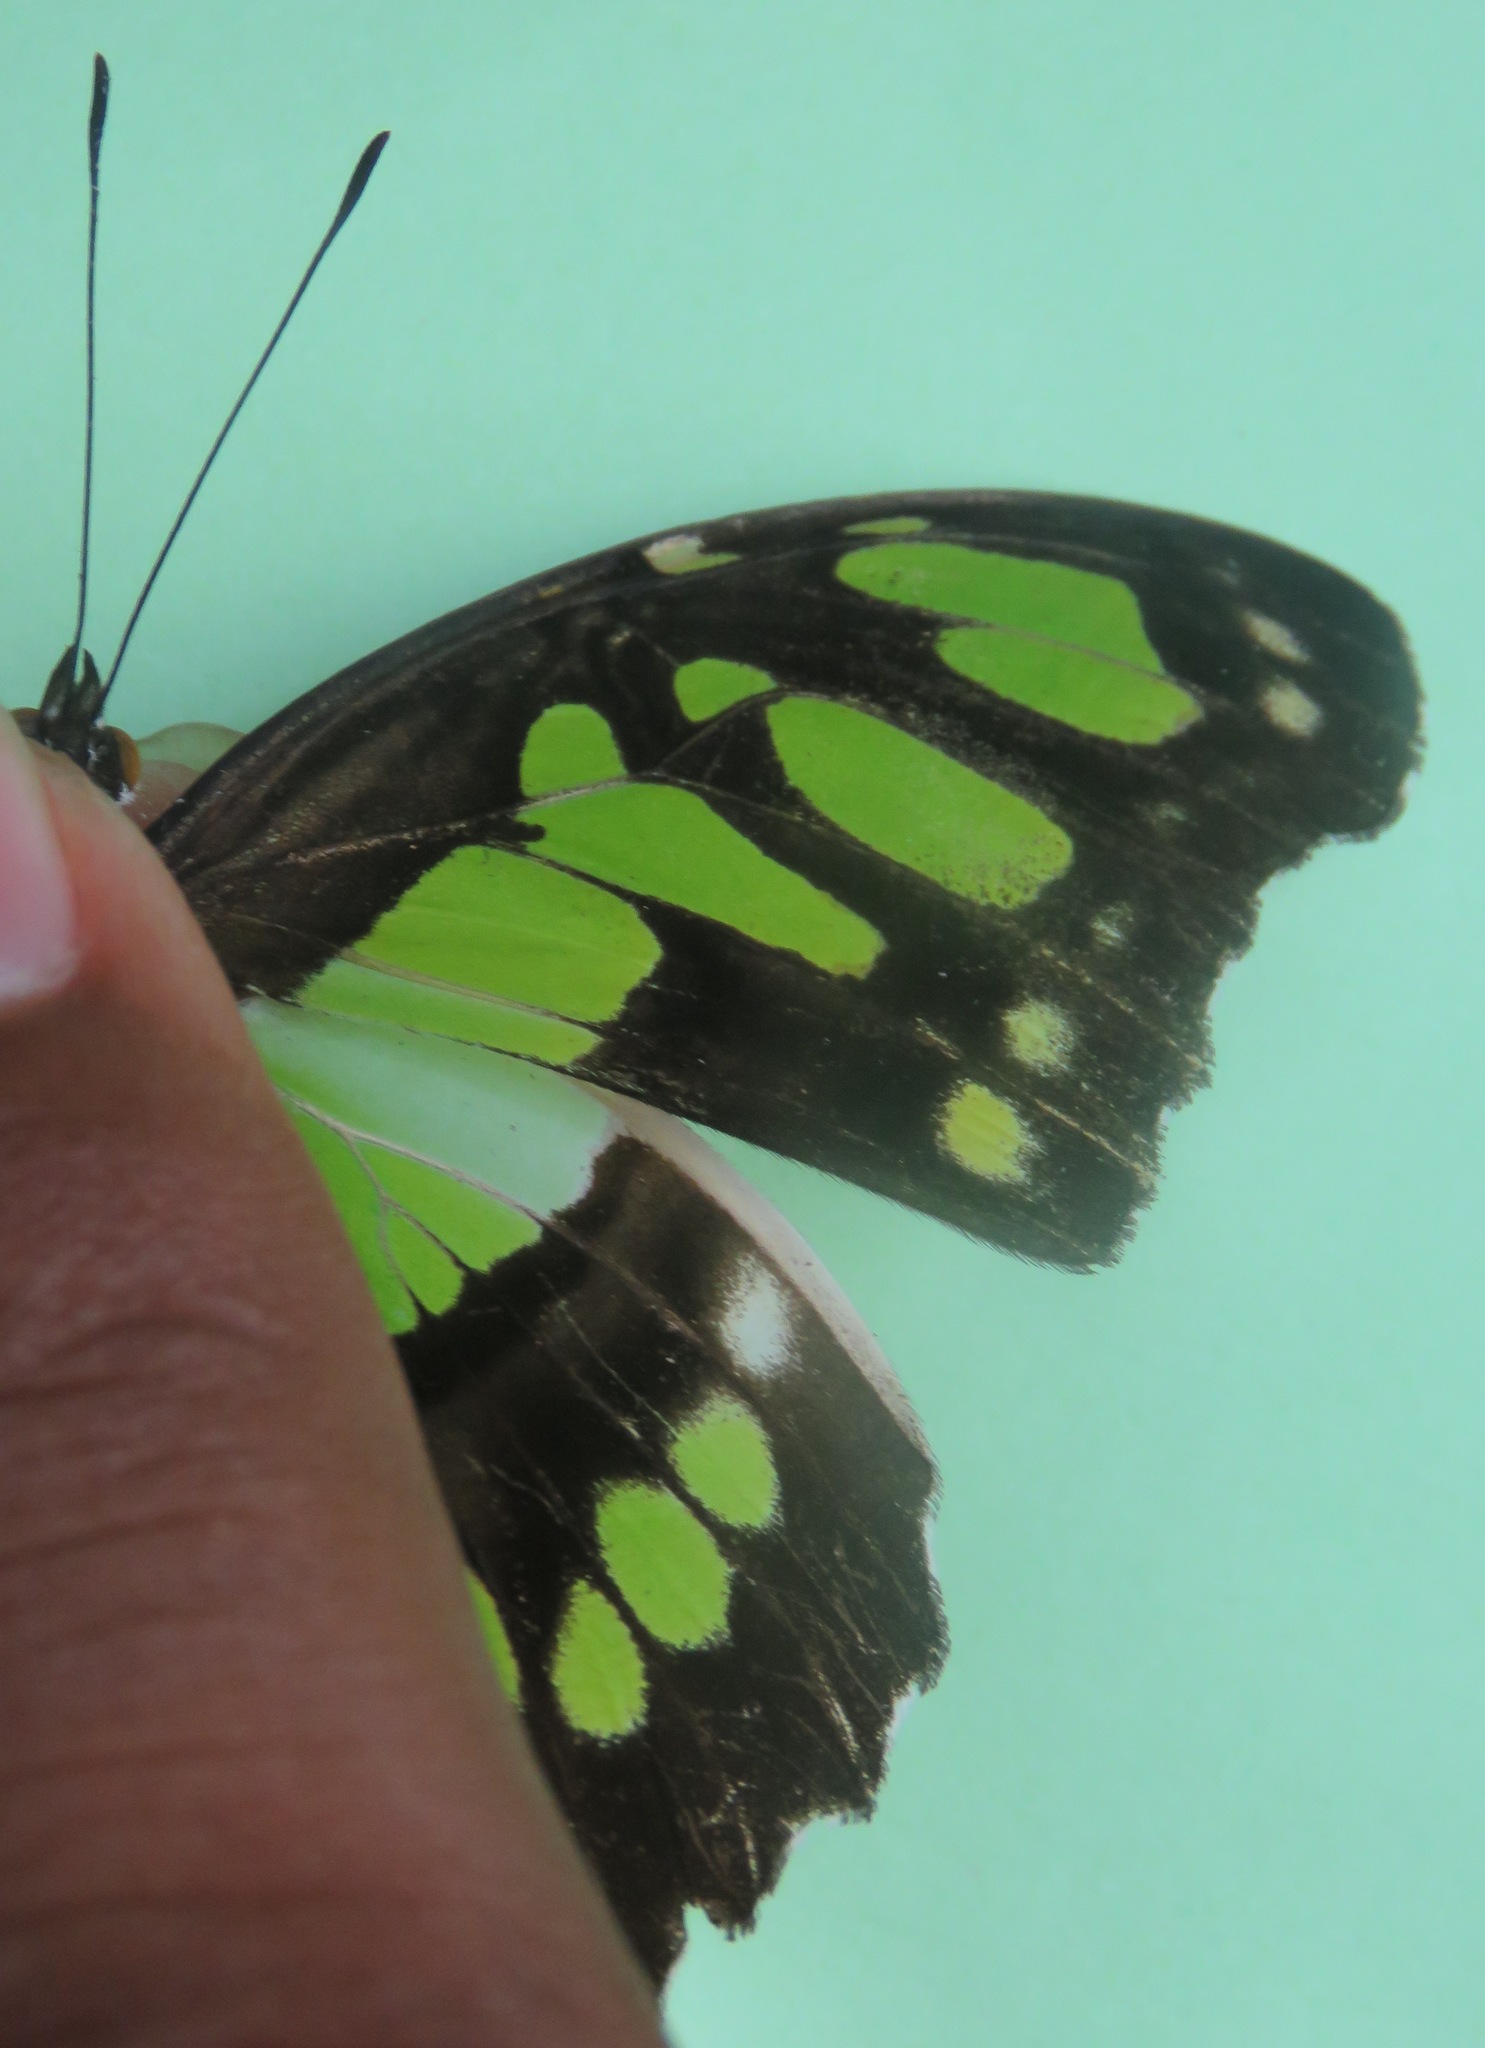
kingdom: Animalia
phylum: Arthropoda
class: Insecta
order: Lepidoptera
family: Nymphalidae
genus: Siproeta
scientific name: Siproeta stelenes
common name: Malachite
